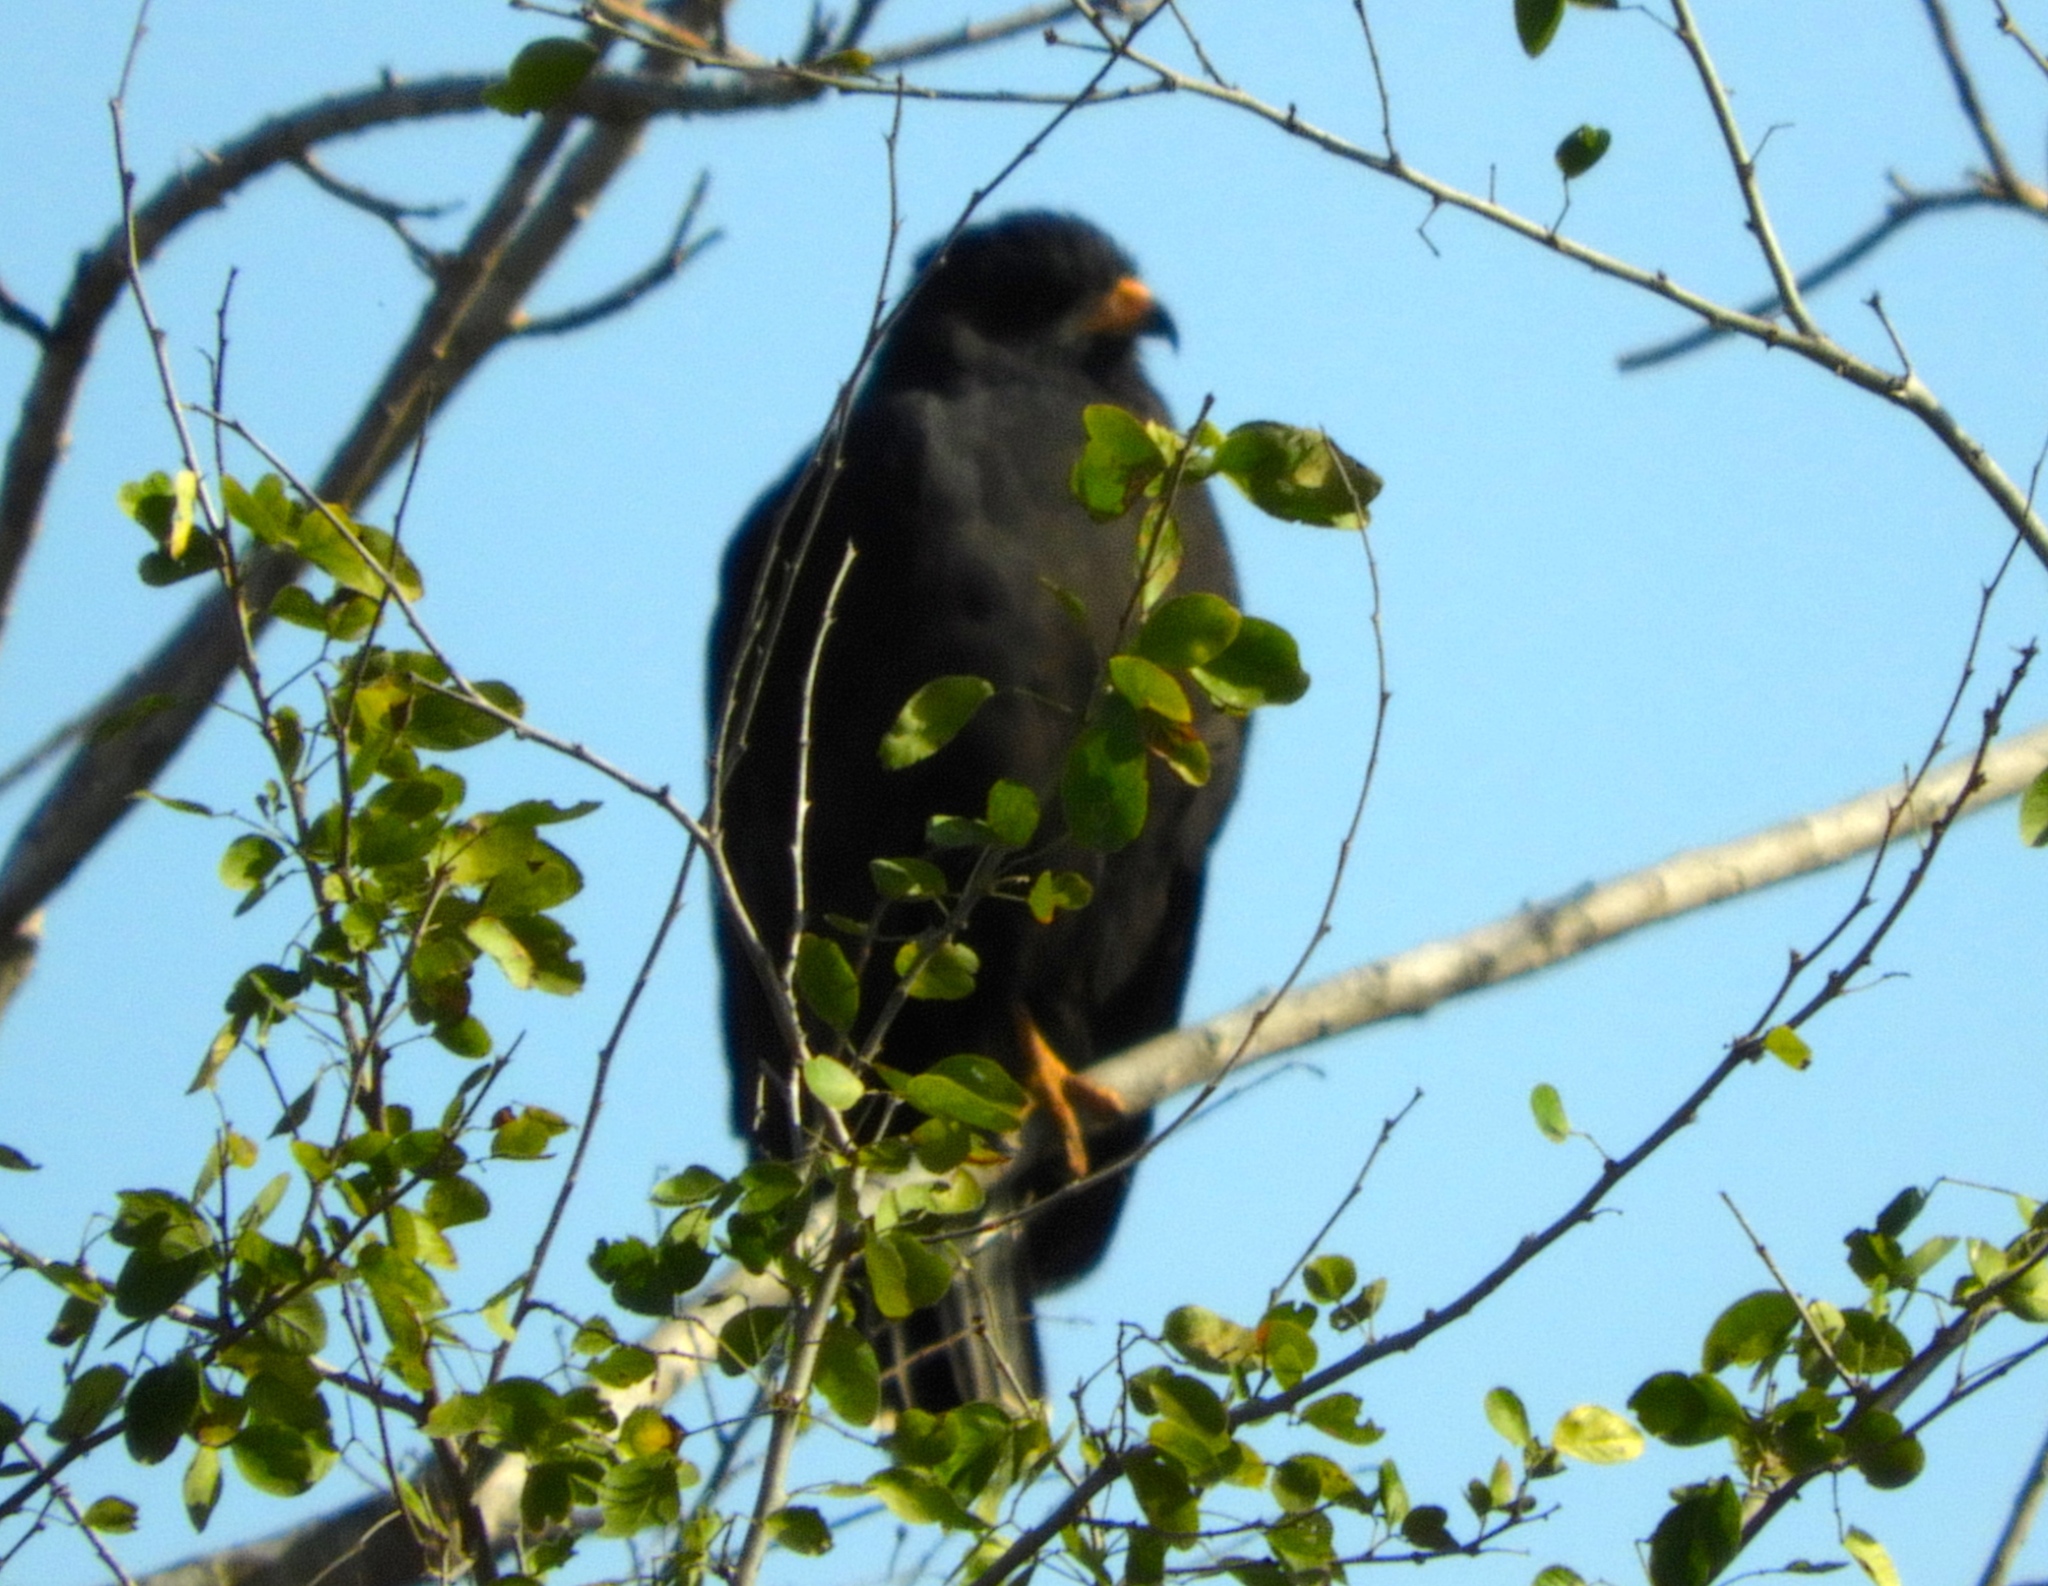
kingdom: Animalia
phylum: Chordata
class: Aves
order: Accipitriformes
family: Accipitridae
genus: Buteogallus
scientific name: Buteogallus anthracinus
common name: Common black hawk
